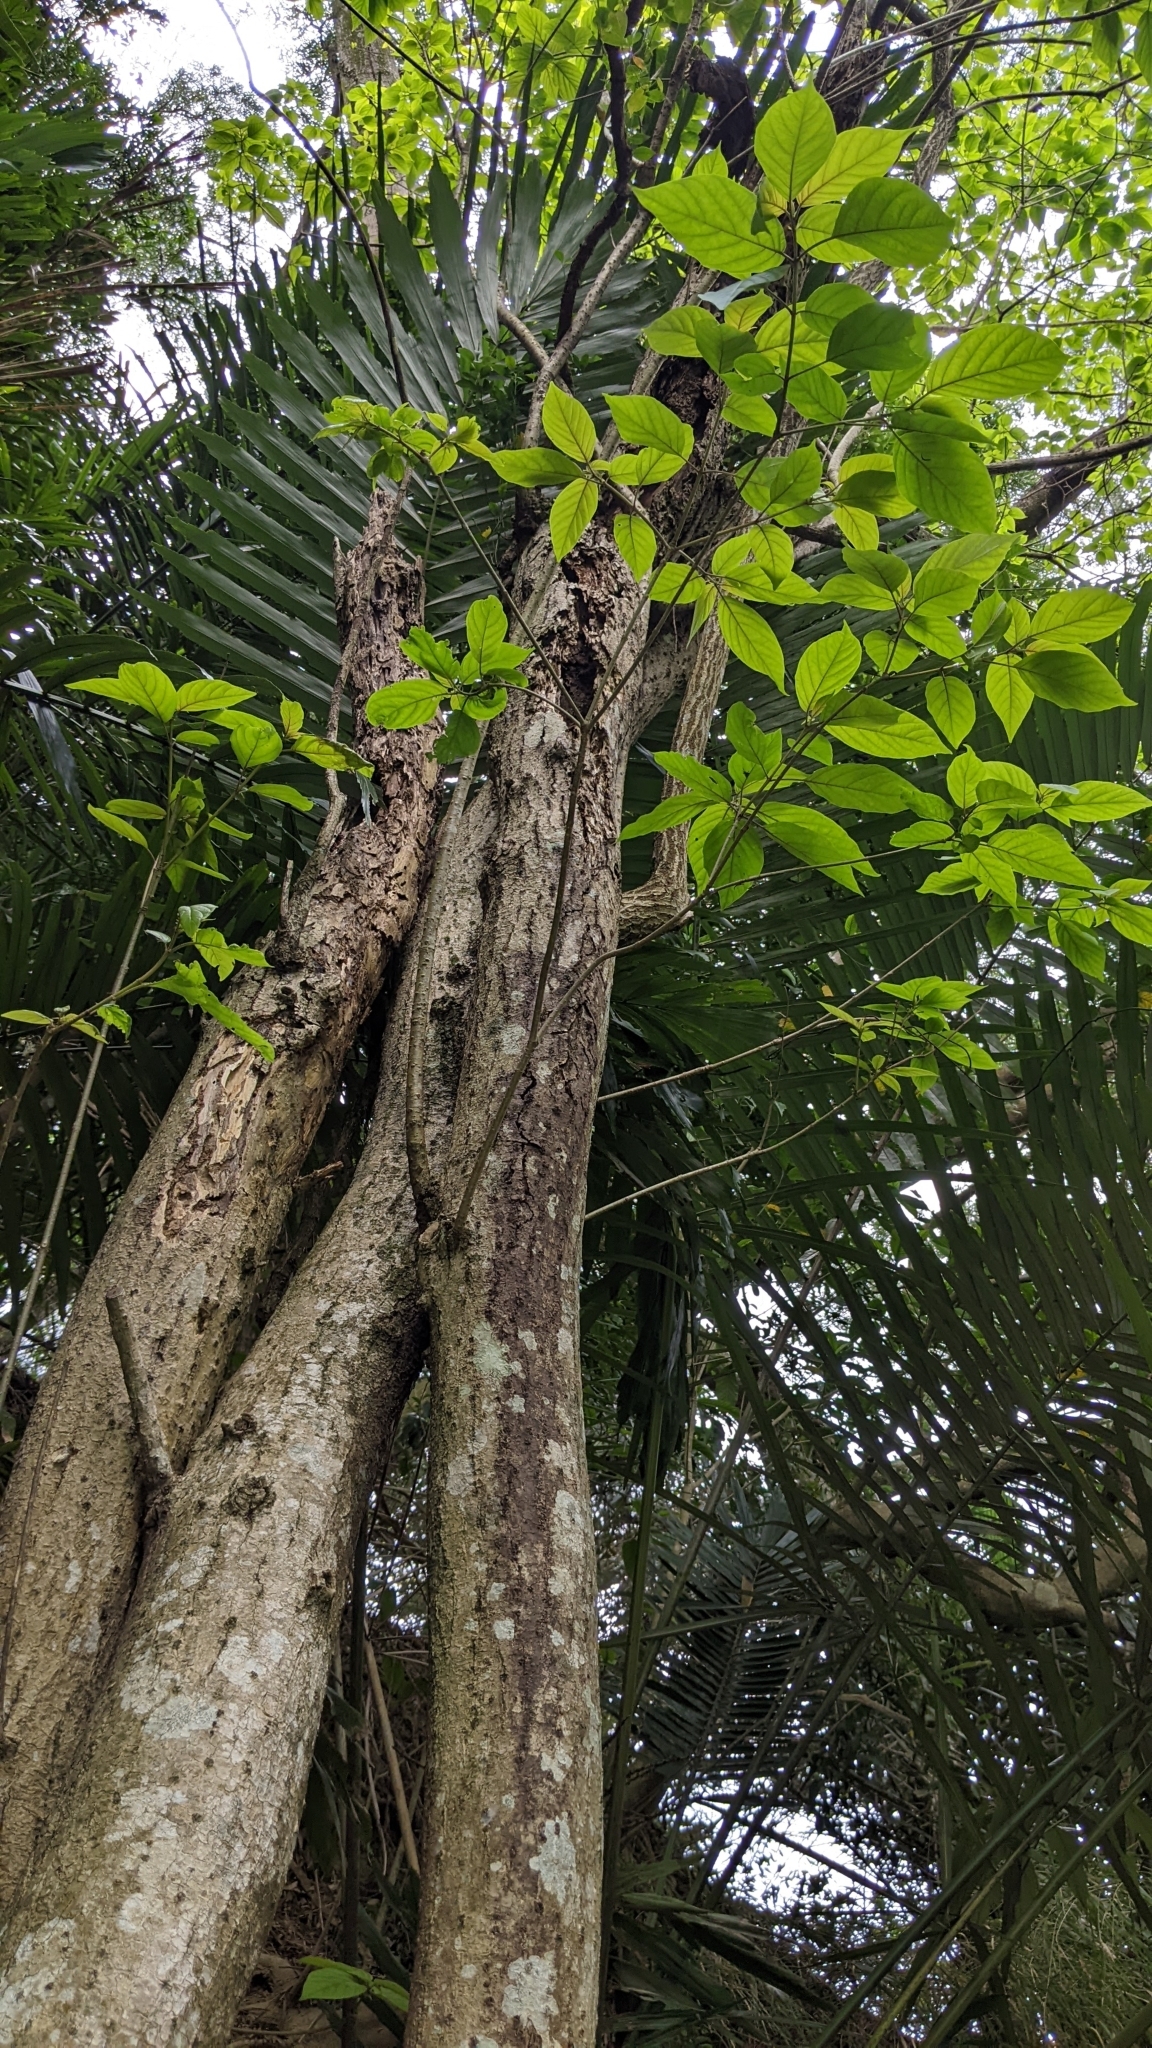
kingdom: Plantae
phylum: Tracheophyta
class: Magnoliopsida
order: Gentianales
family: Rubiaceae
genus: Adina
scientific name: Adina racemosa
